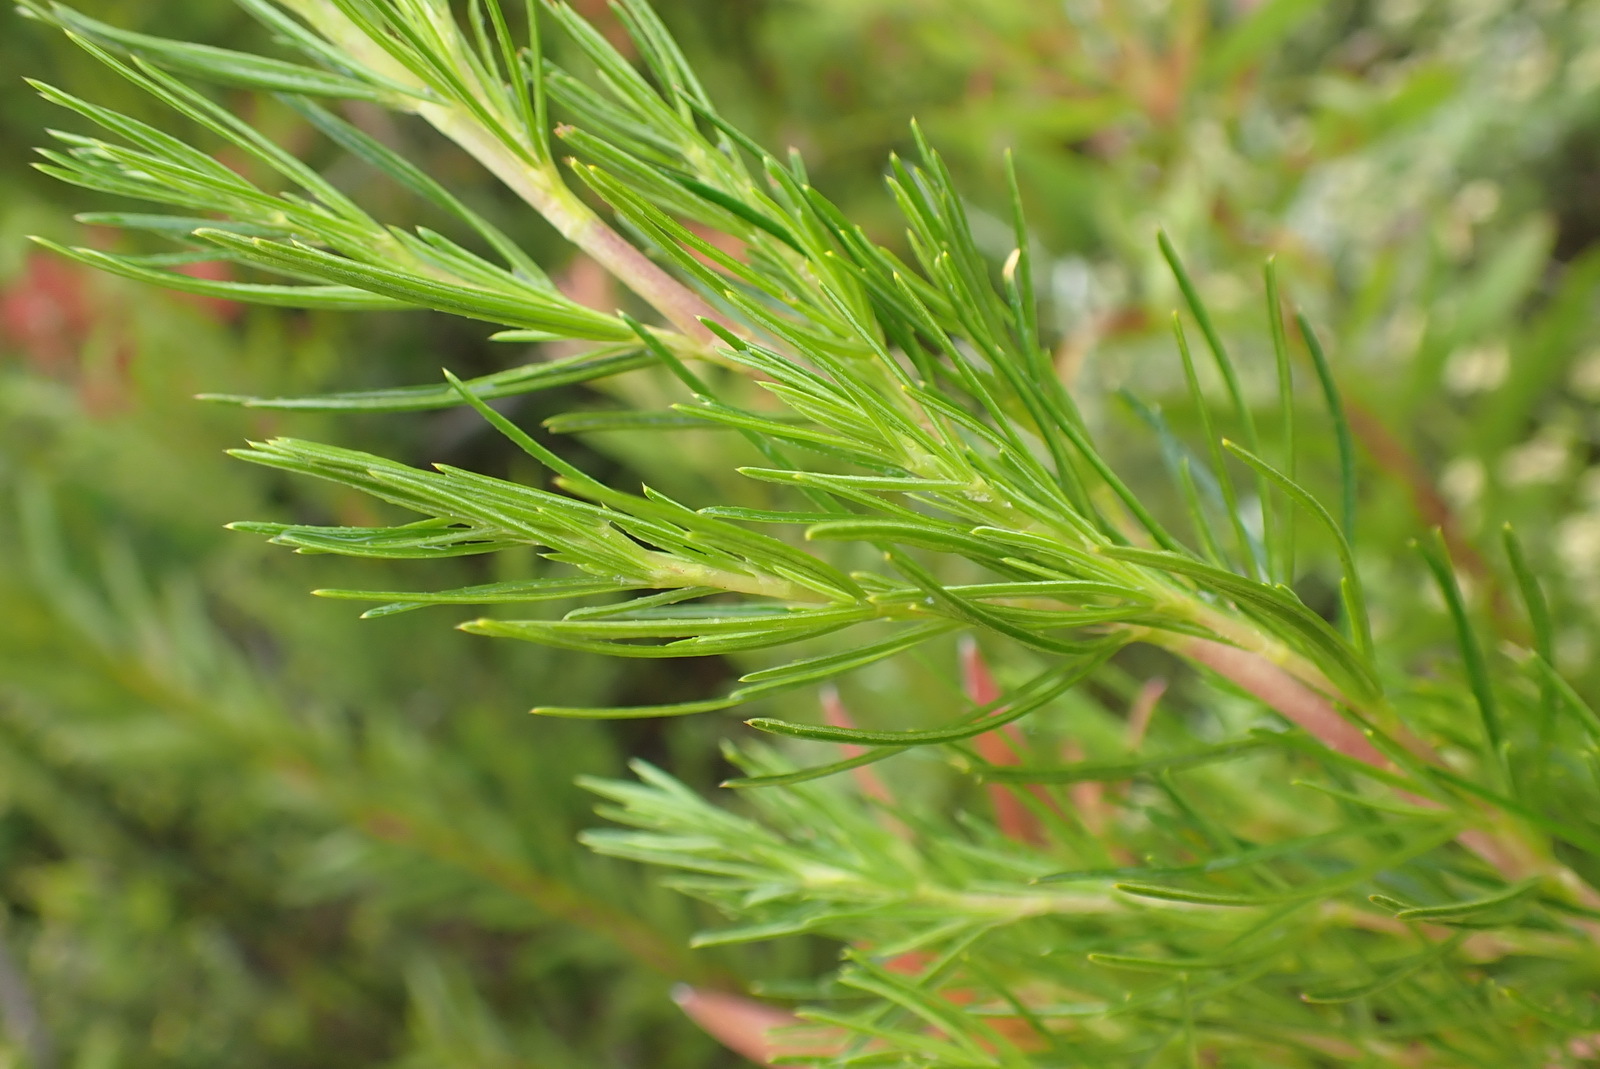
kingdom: Plantae
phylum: Tracheophyta
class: Magnoliopsida
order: Rosales
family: Rosaceae
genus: Cliffortia
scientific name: Cliffortia burchellii
